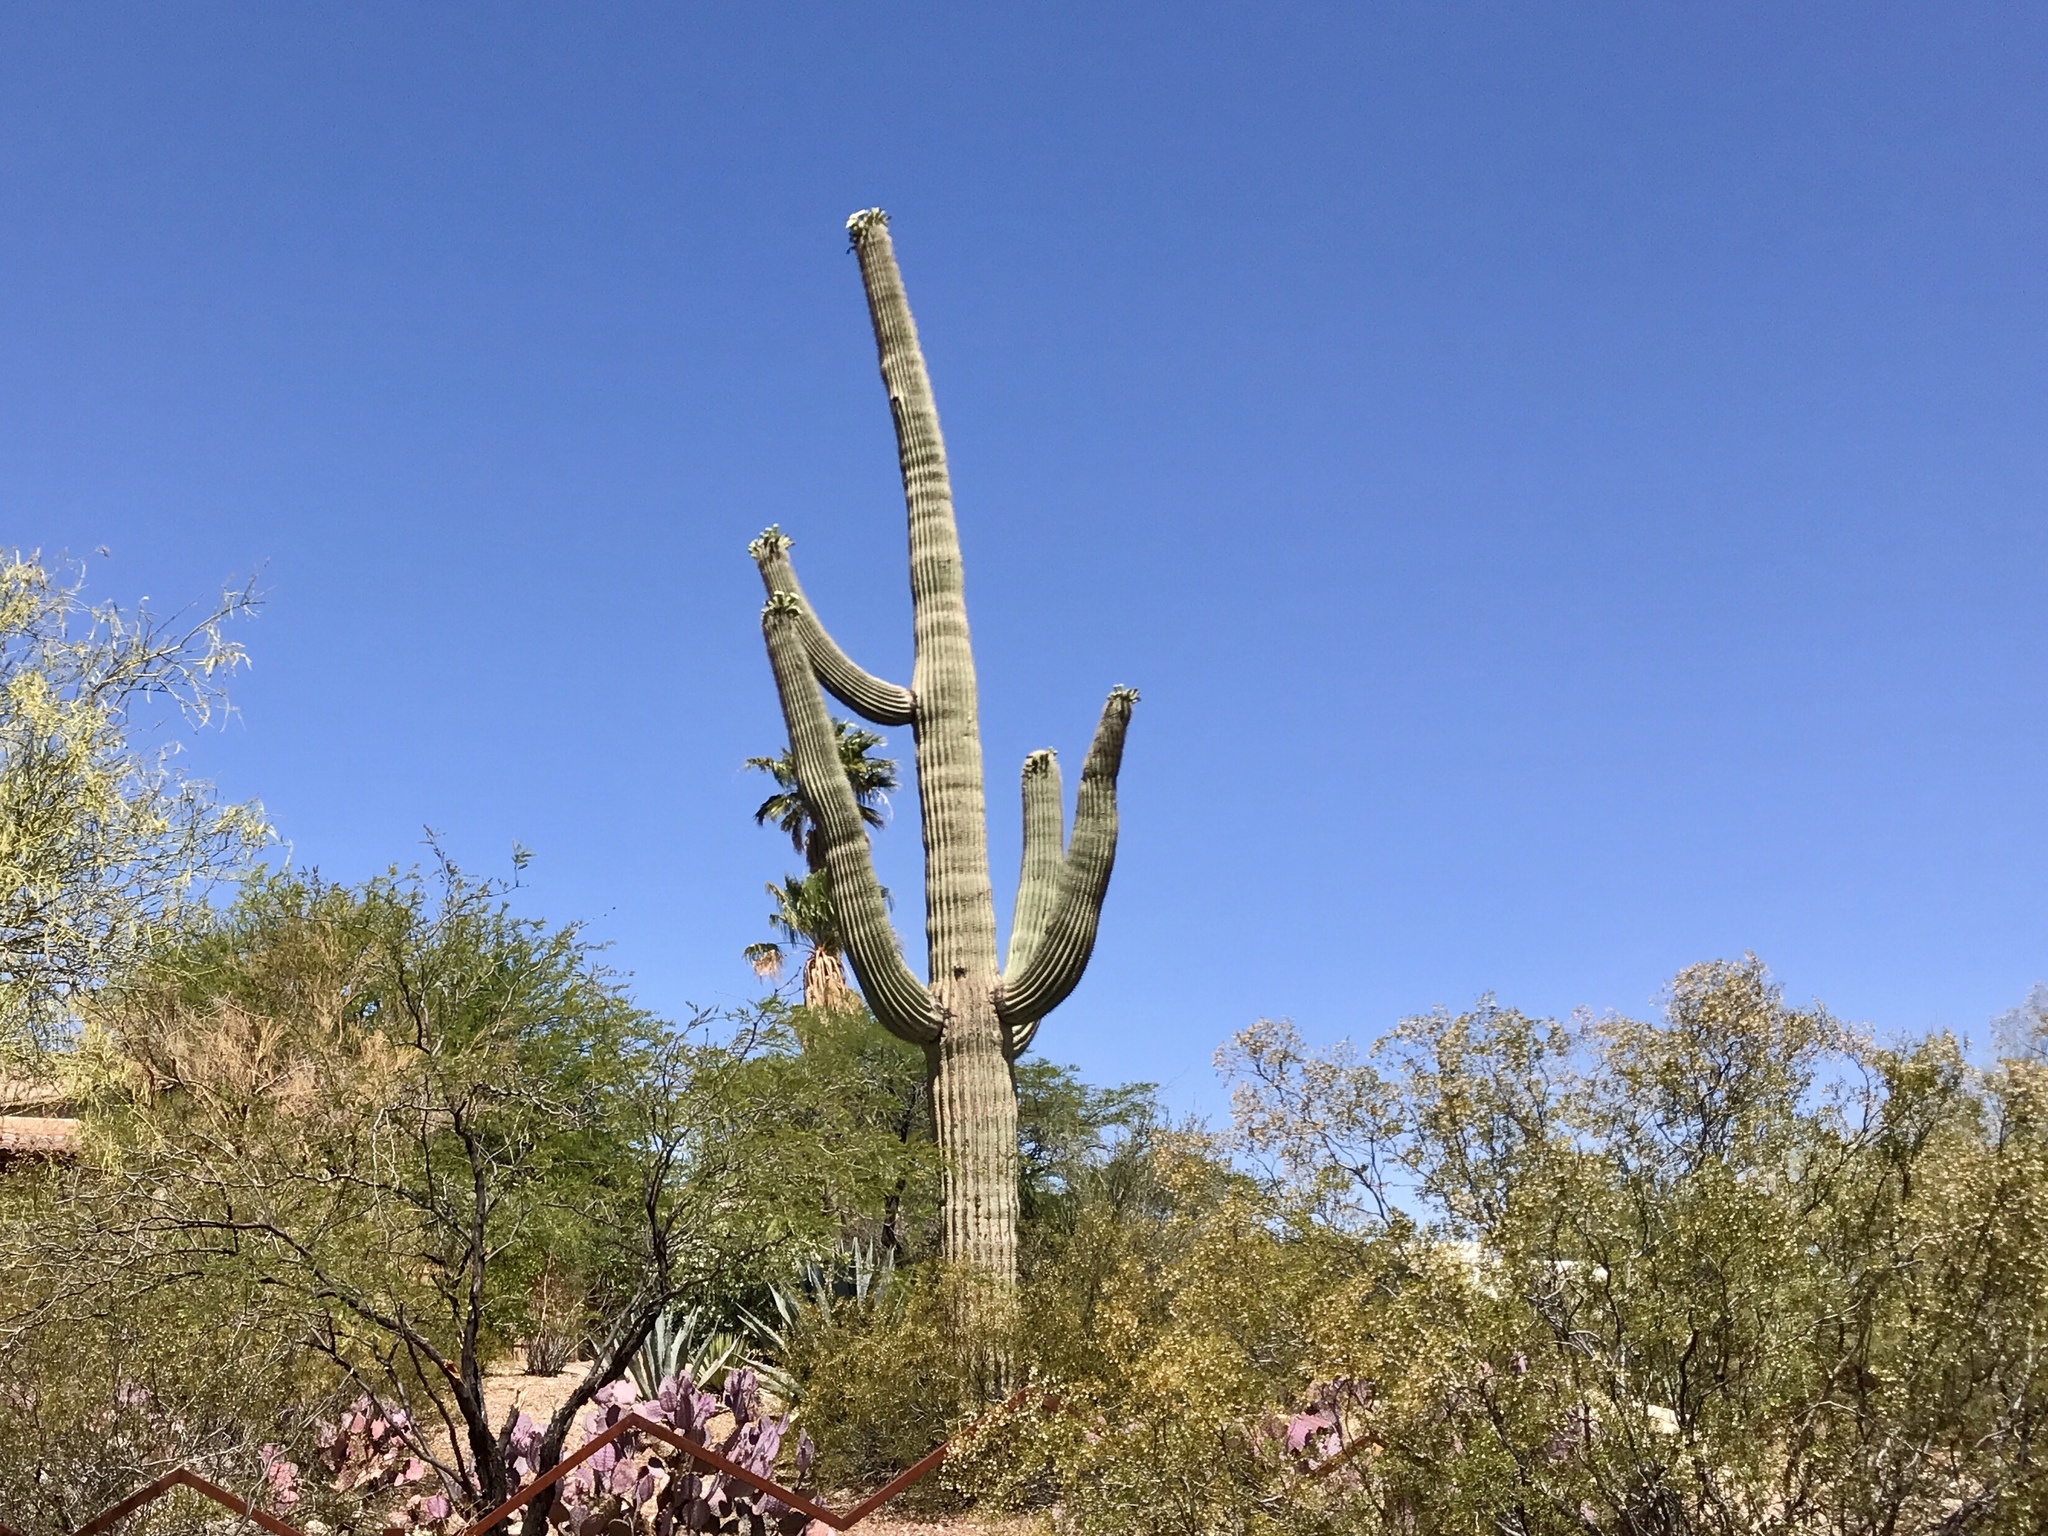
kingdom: Plantae
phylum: Tracheophyta
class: Magnoliopsida
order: Caryophyllales
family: Cactaceae
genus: Carnegiea
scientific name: Carnegiea gigantea
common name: Saguaro
